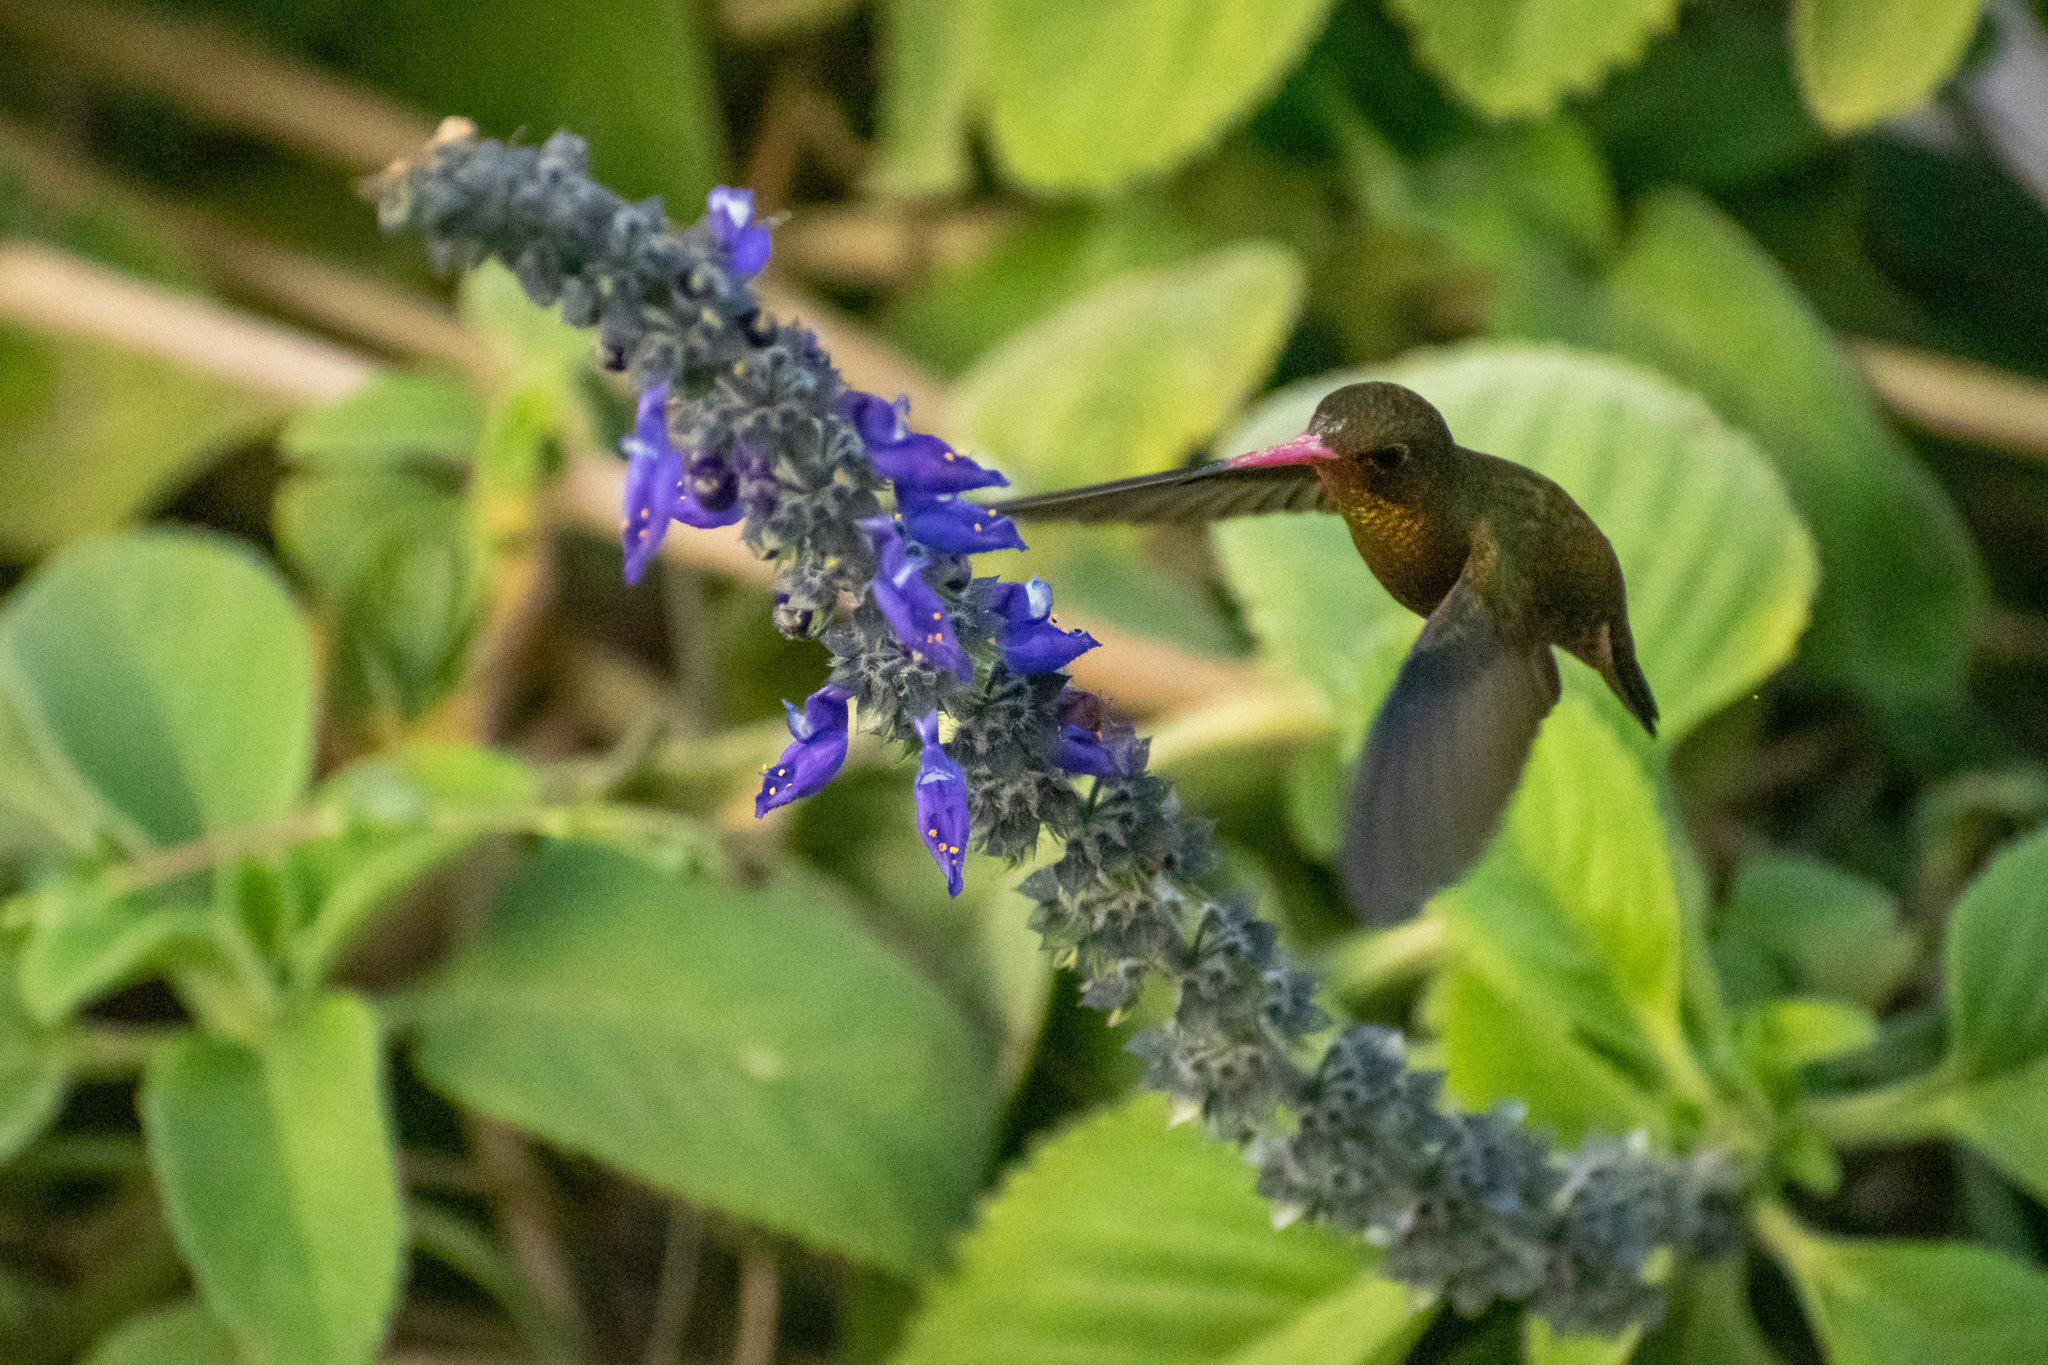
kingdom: Animalia
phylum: Chordata
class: Aves
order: Apodiformes
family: Trochilidae
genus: Hylocharis
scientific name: Hylocharis chrysura
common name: Gilded sapphire
